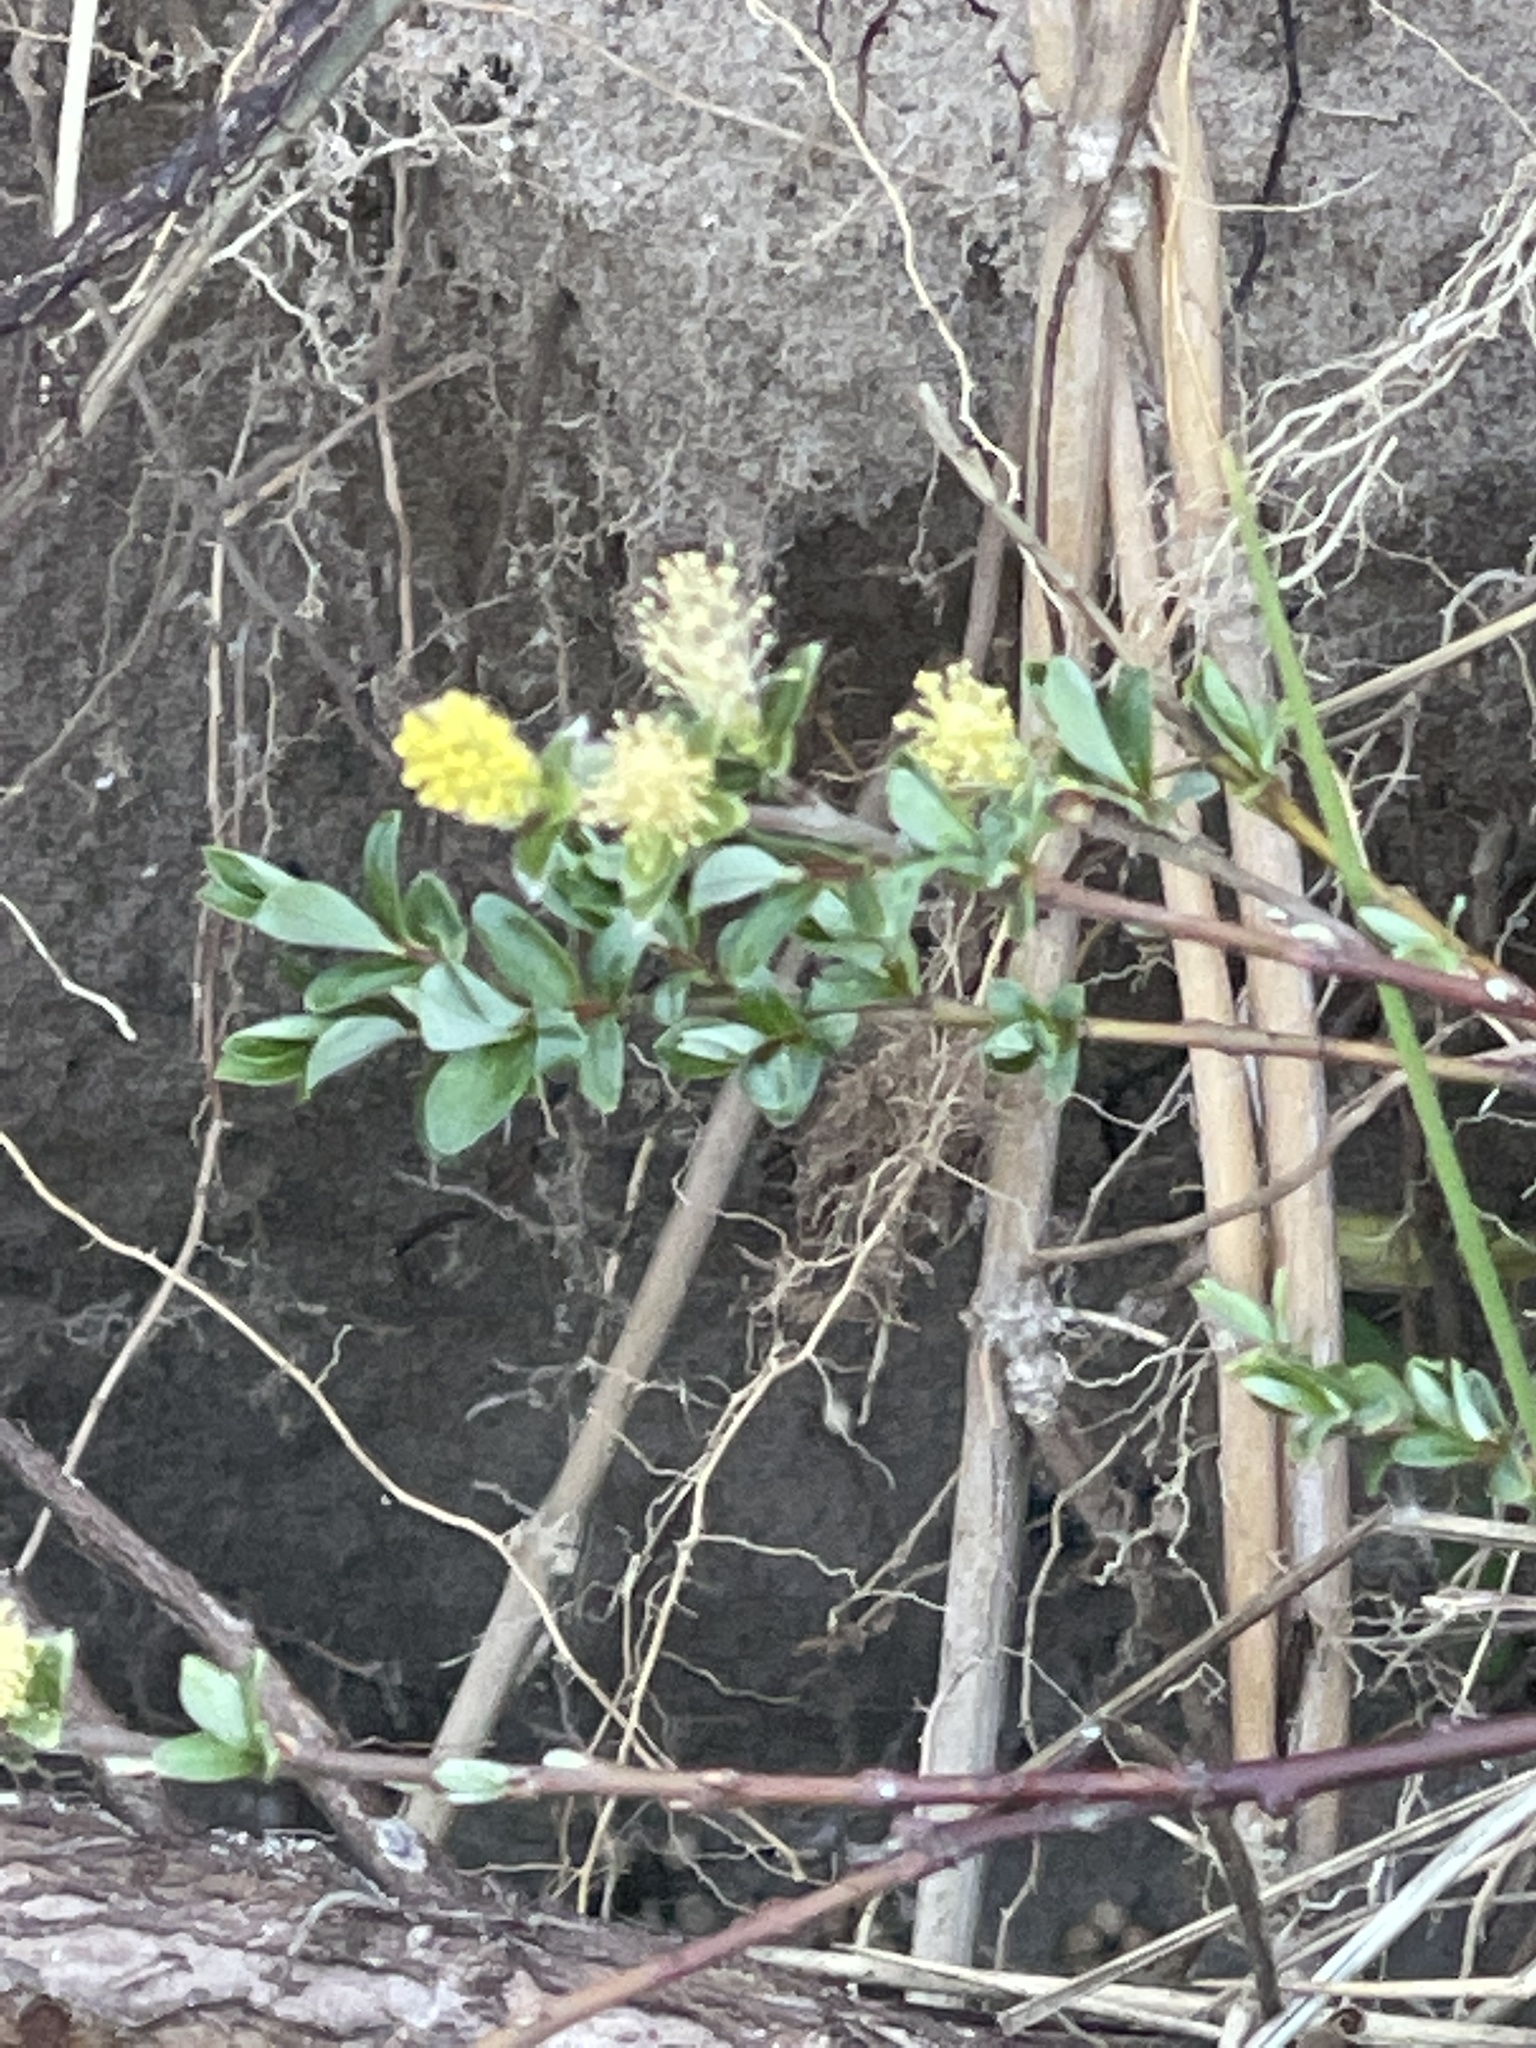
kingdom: Plantae
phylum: Tracheophyta
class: Magnoliopsida
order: Malpighiales
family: Salicaceae
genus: Salix
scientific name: Salix repens
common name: Creeping willow
